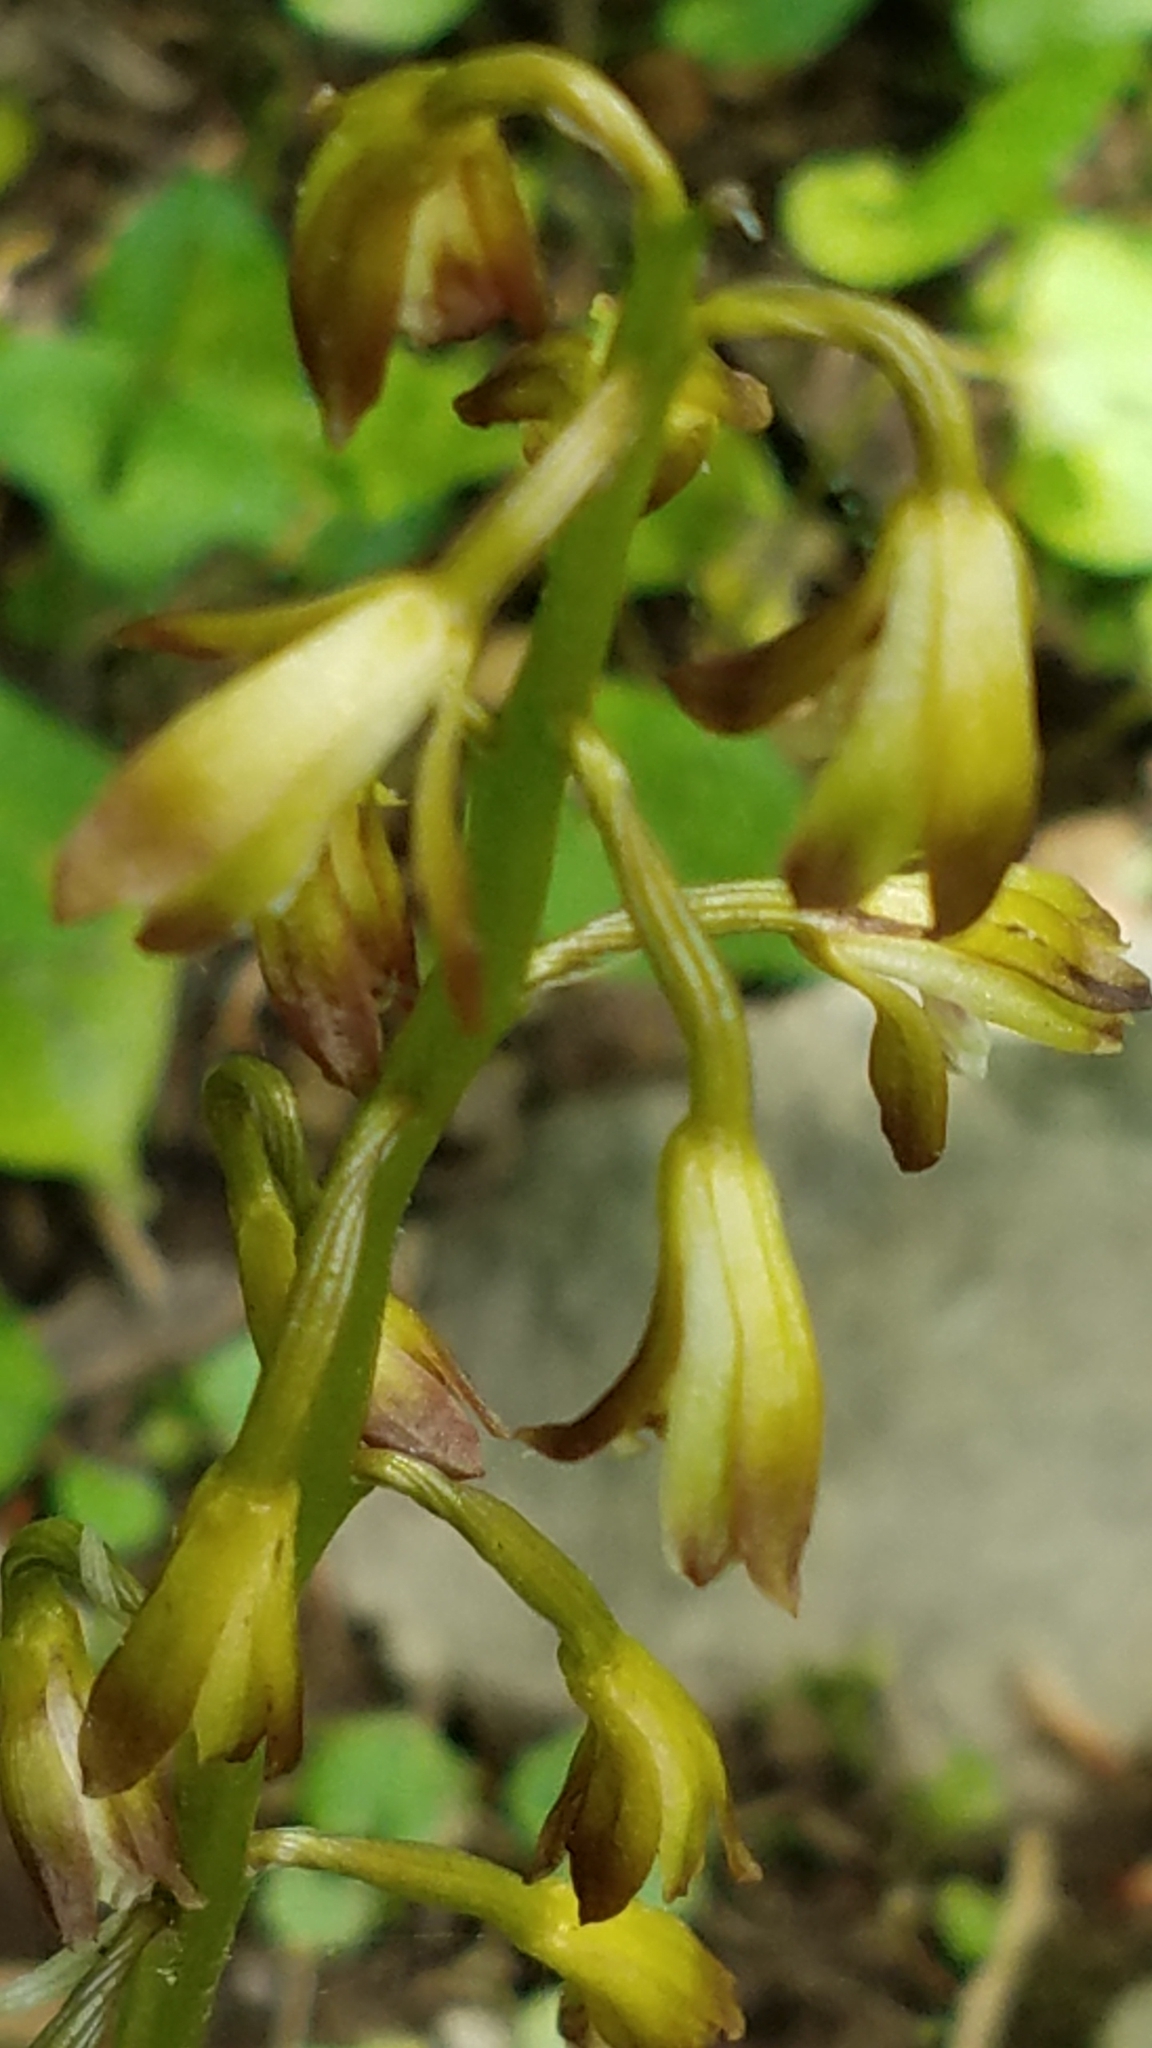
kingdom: Plantae
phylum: Tracheophyta
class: Liliopsida
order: Asparagales
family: Orchidaceae
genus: Aplectrum
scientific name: Aplectrum hyemale
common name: Adam-and-eve
